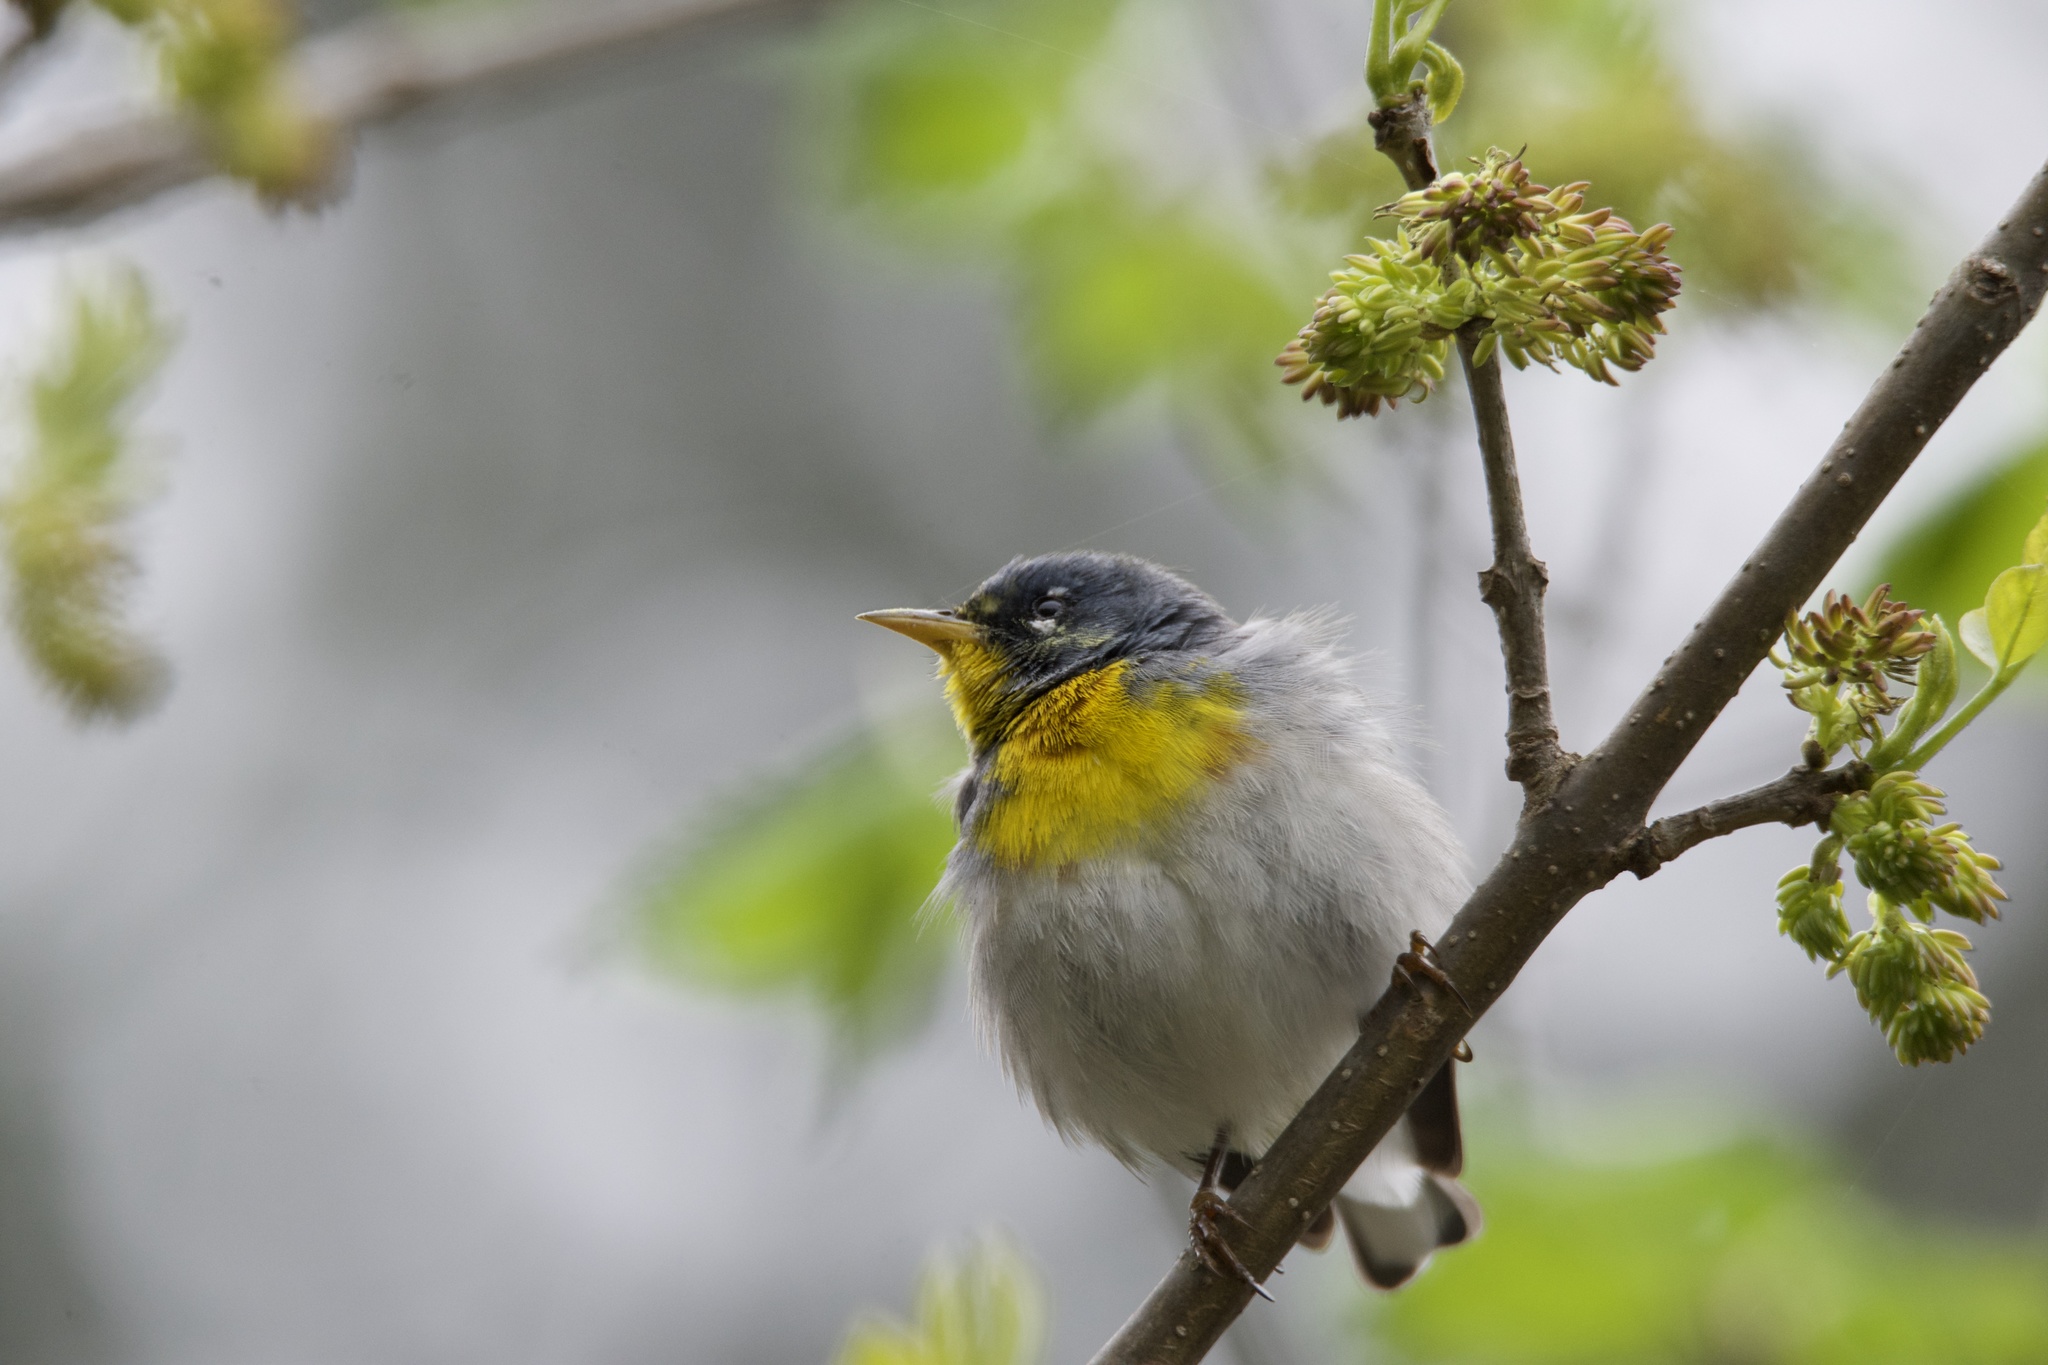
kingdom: Animalia
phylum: Chordata
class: Aves
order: Passeriformes
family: Parulidae
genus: Setophaga
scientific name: Setophaga americana
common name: Northern parula
